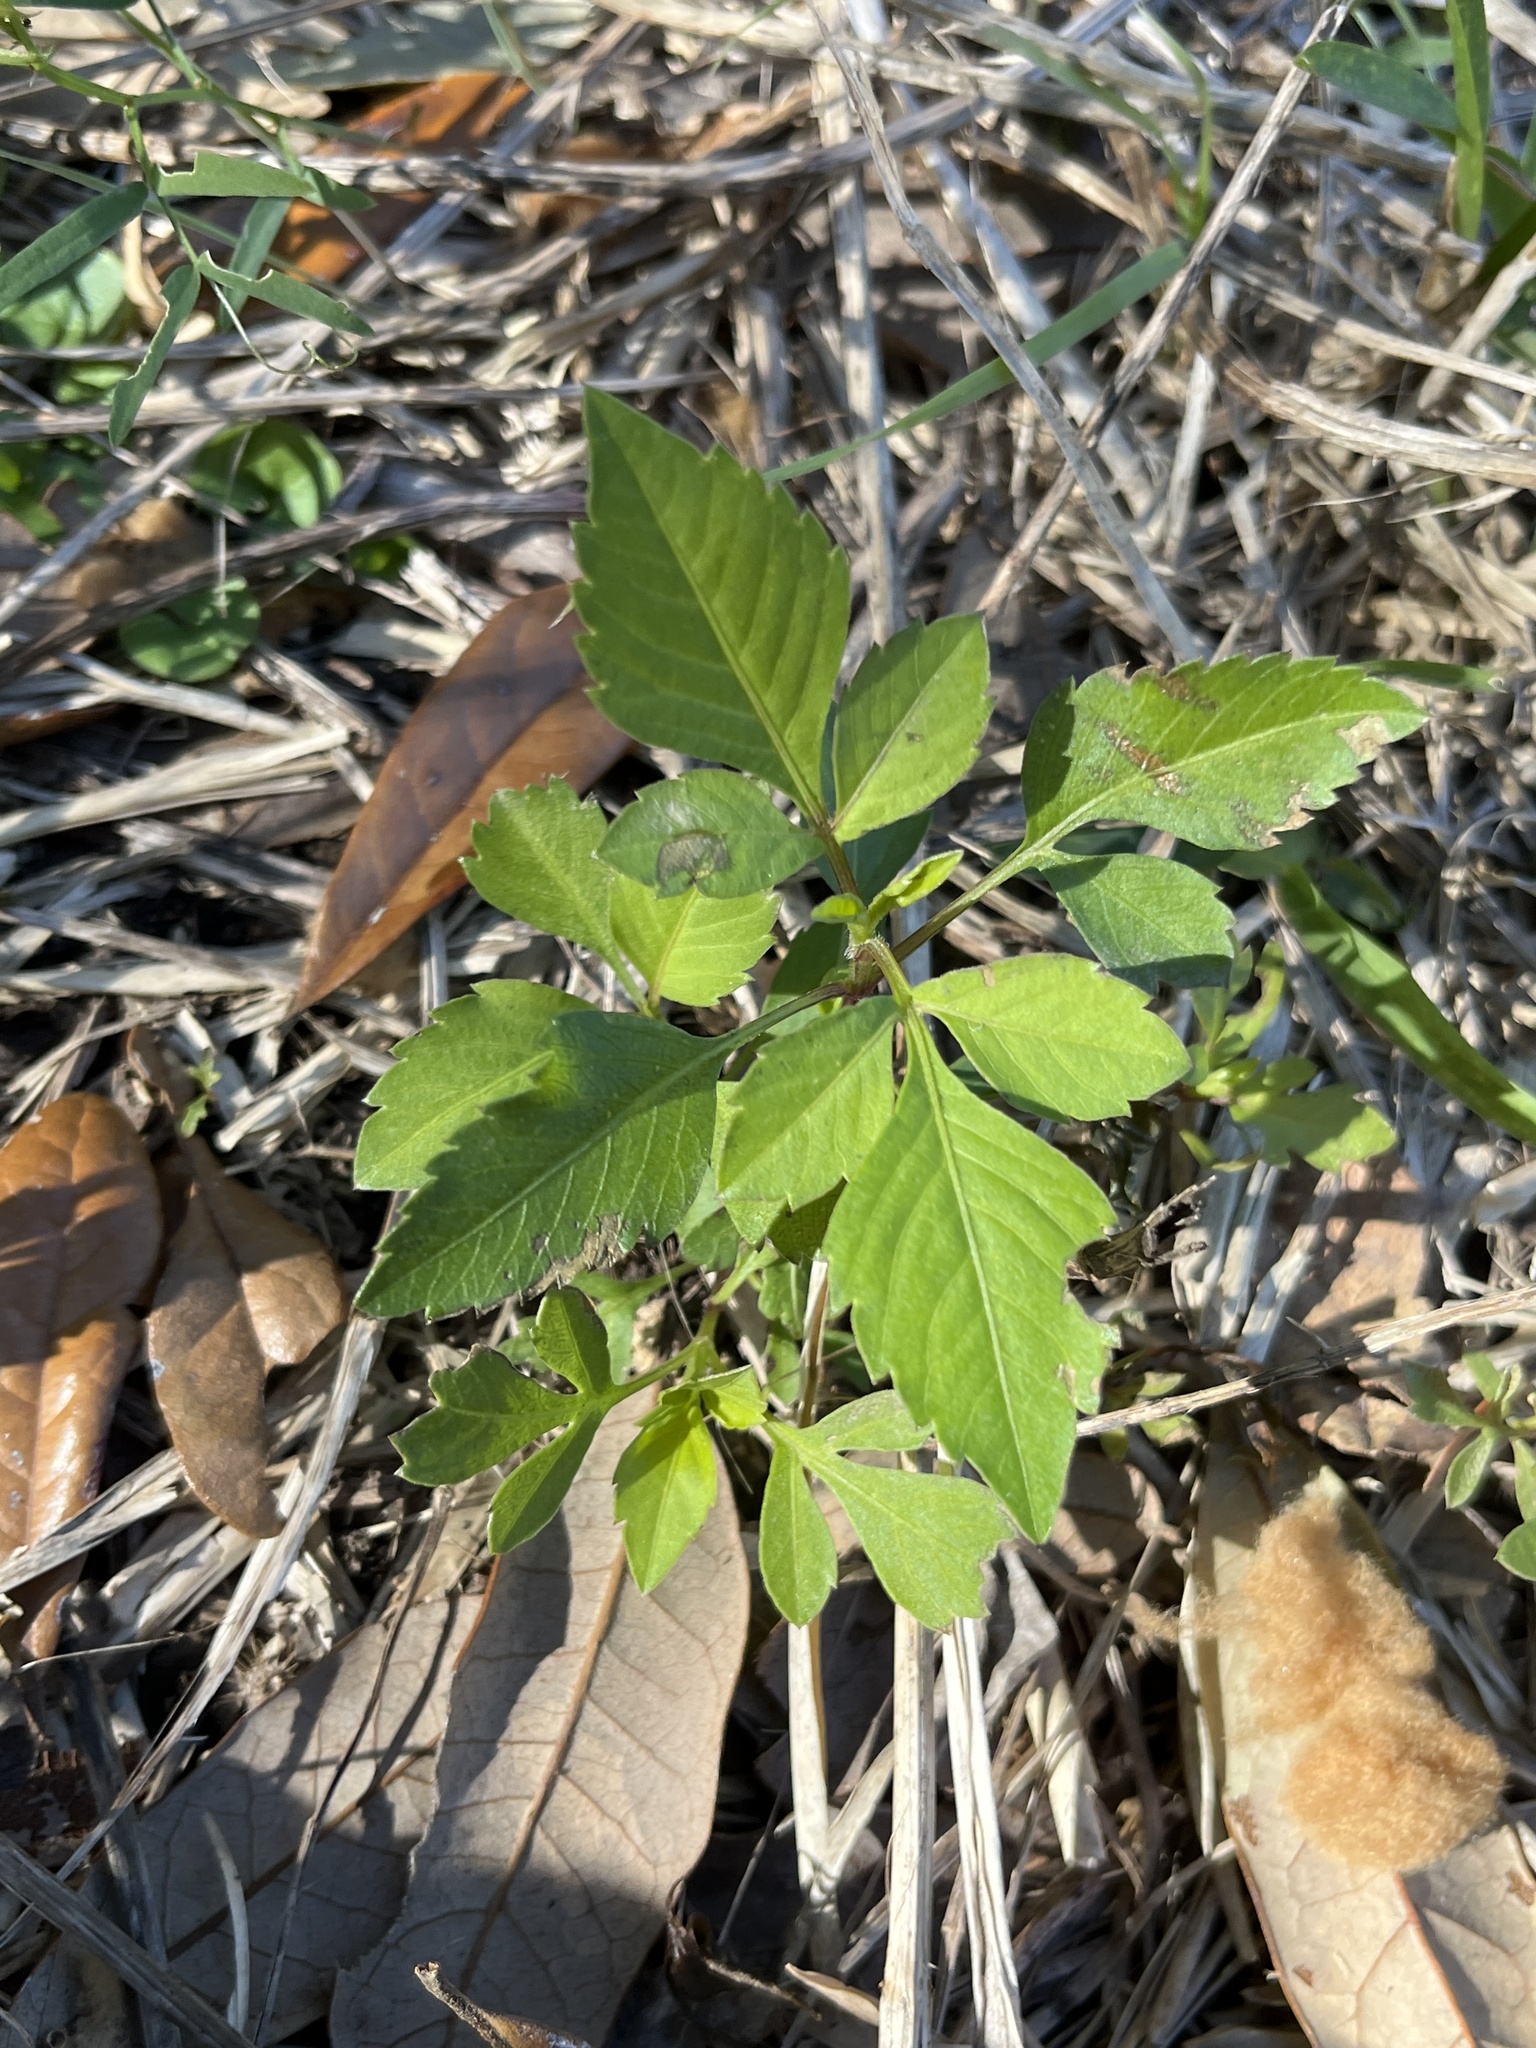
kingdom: Plantae
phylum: Tracheophyta
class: Magnoliopsida
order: Asterales
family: Asteraceae
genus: Bidens
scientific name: Bidens alba
